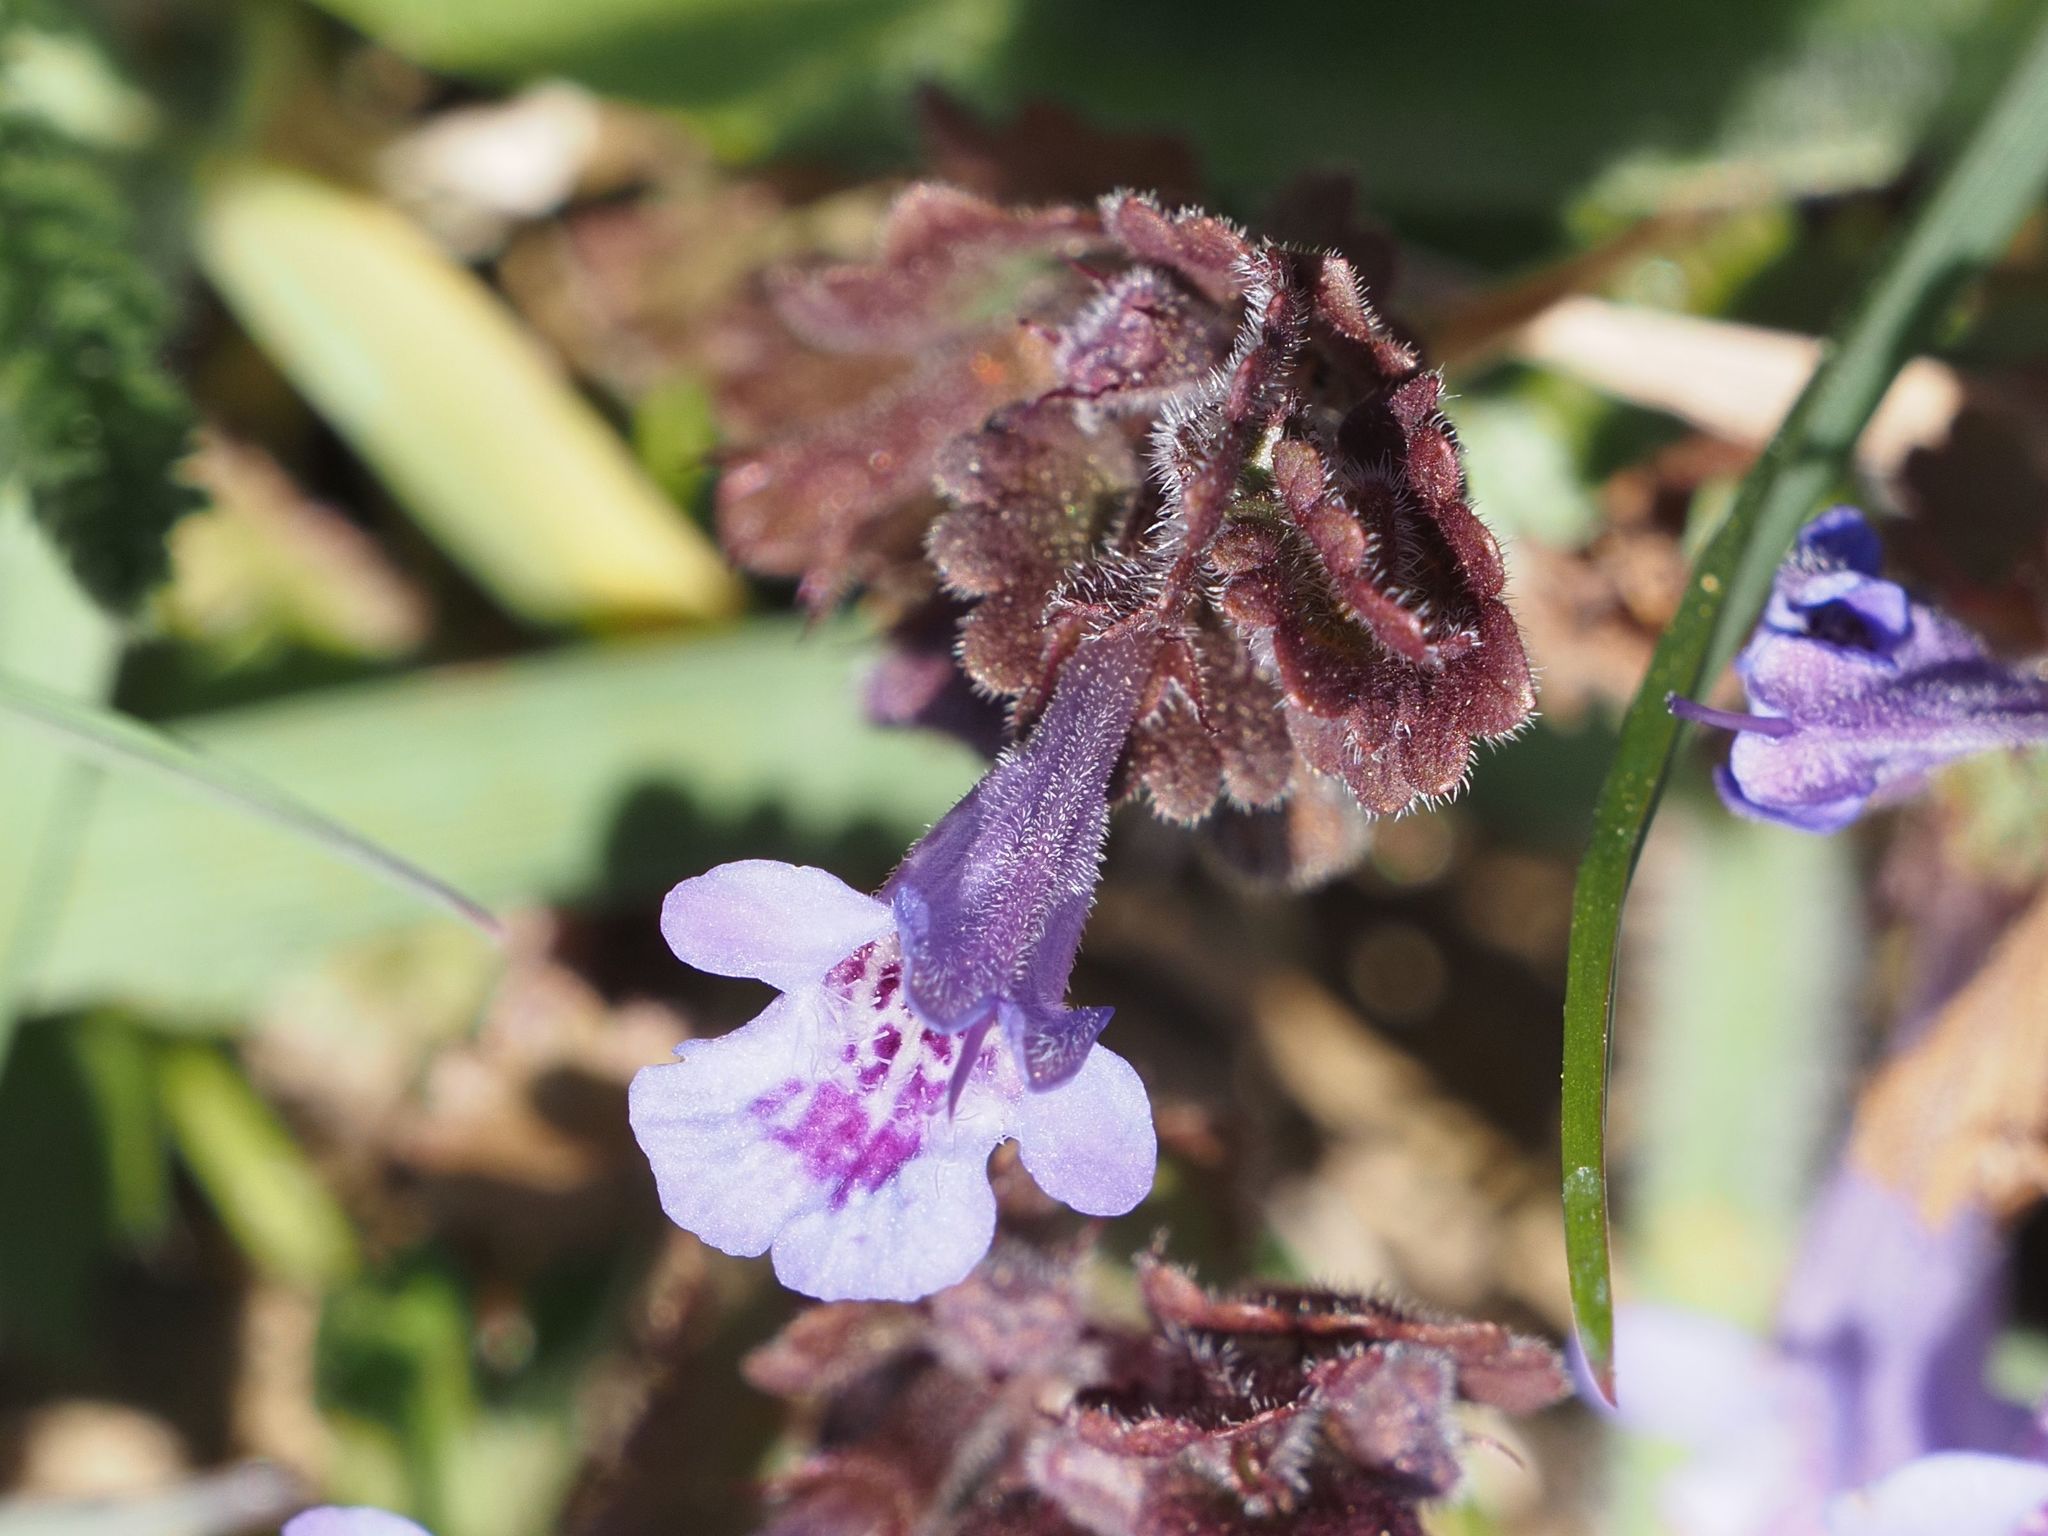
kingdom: Plantae
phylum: Tracheophyta
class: Magnoliopsida
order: Lamiales
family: Lamiaceae
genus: Glechoma
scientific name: Glechoma hederacea
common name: Ground ivy
